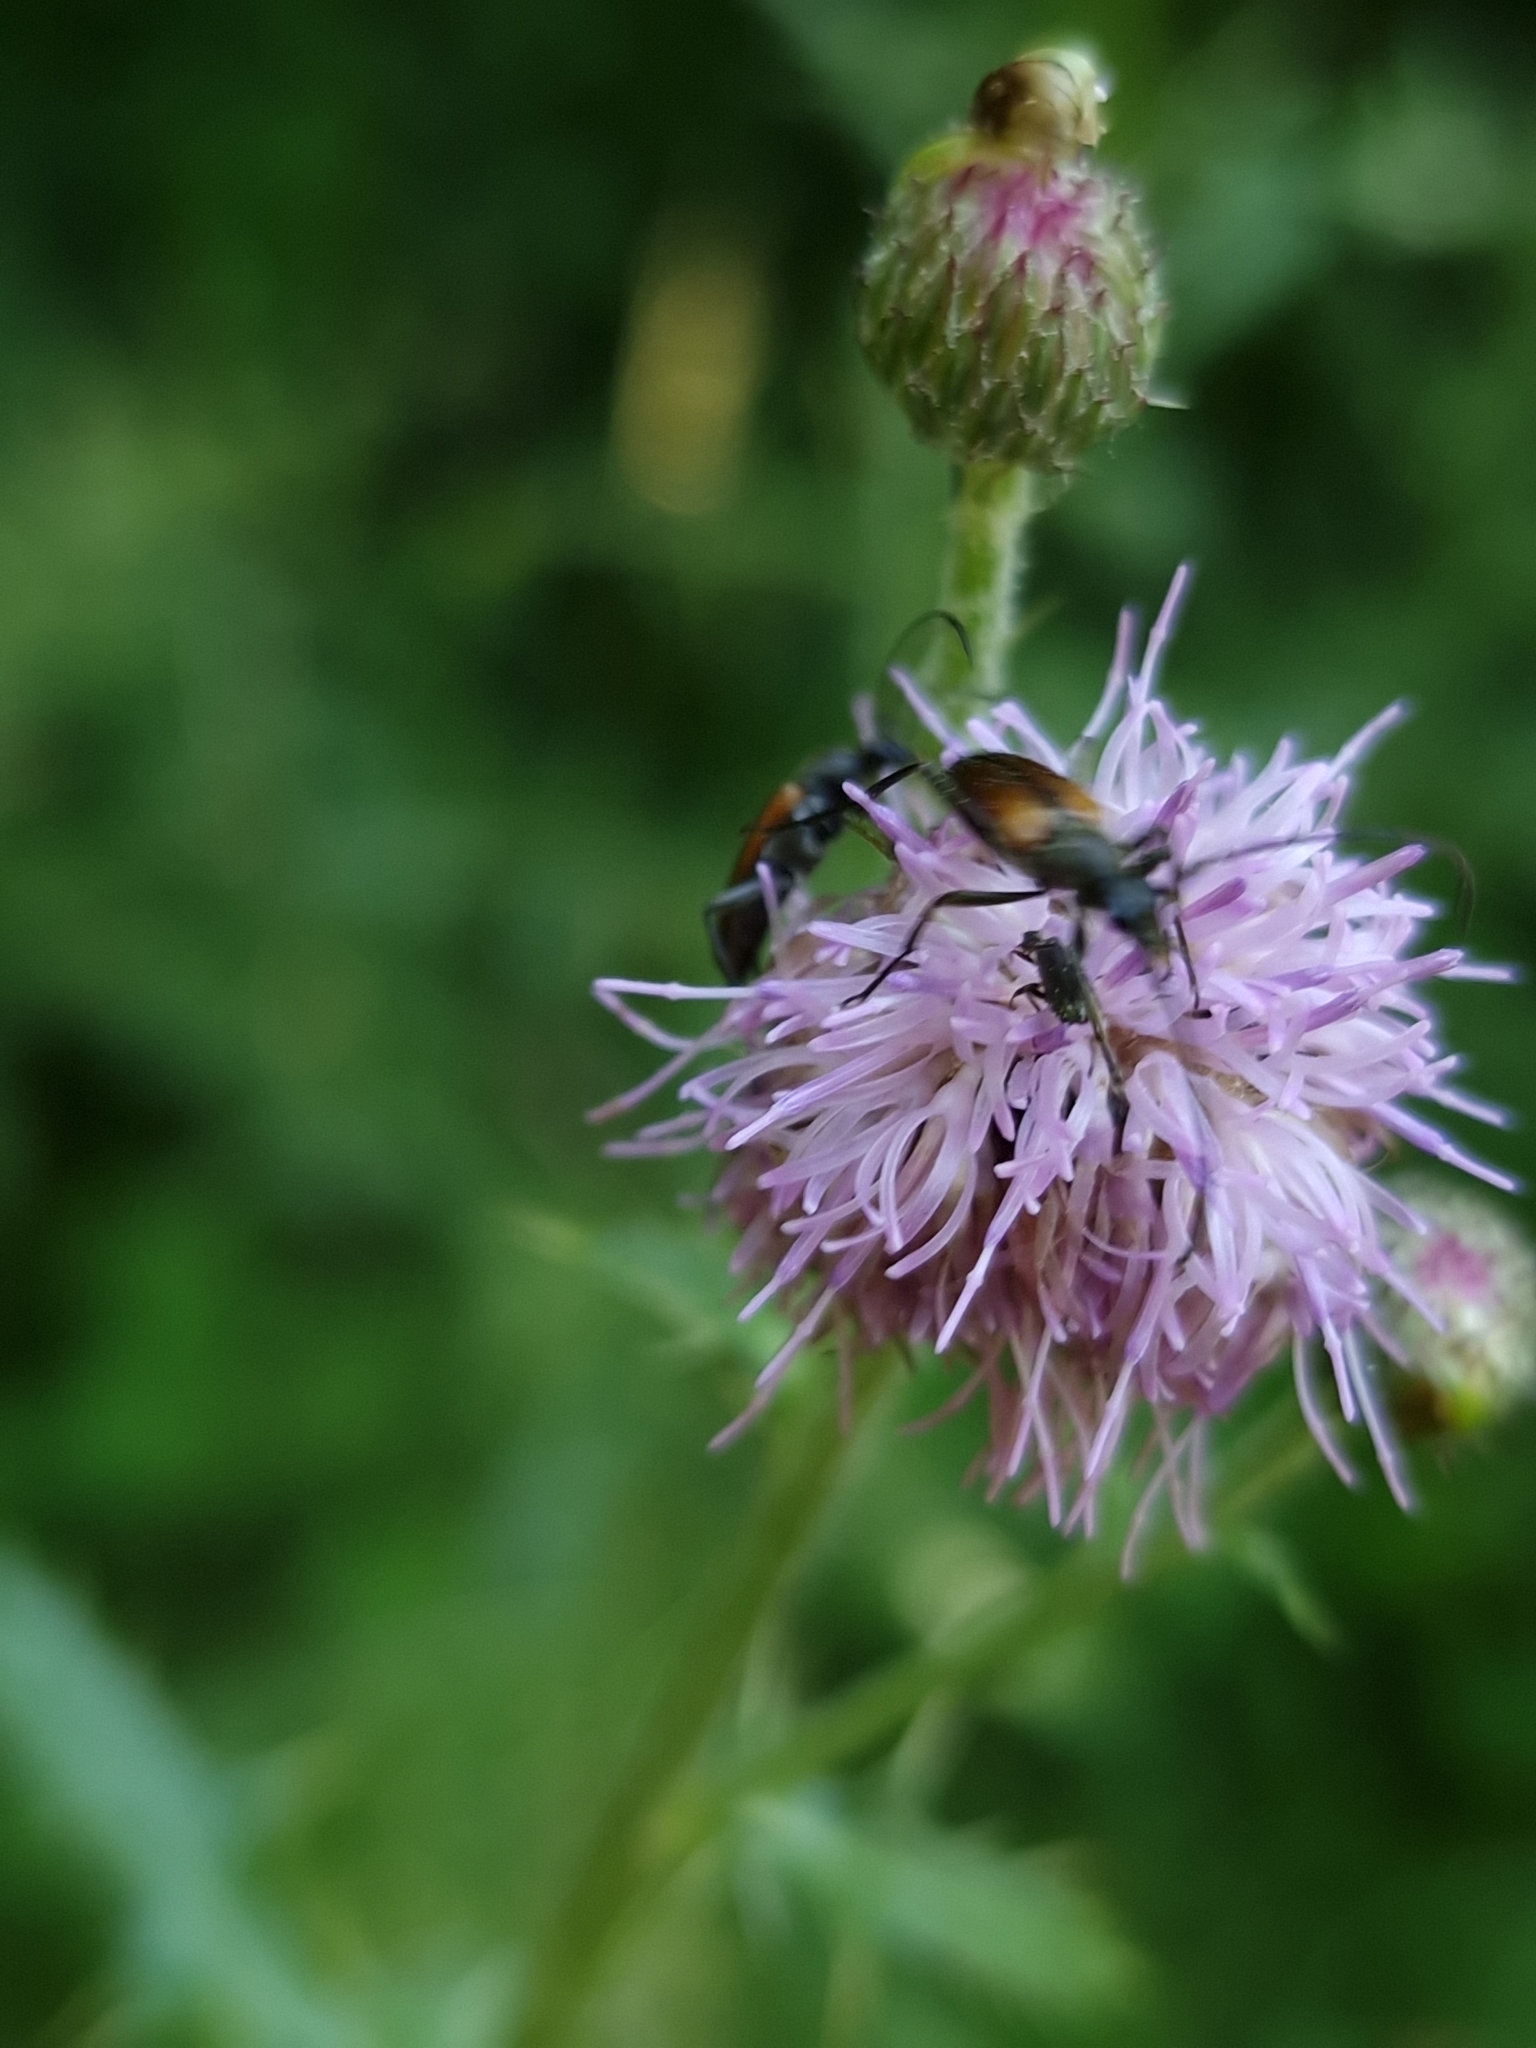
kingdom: Animalia
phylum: Arthropoda
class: Insecta
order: Coleoptera
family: Cerambycidae
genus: Stenurella
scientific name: Stenurella melanura
